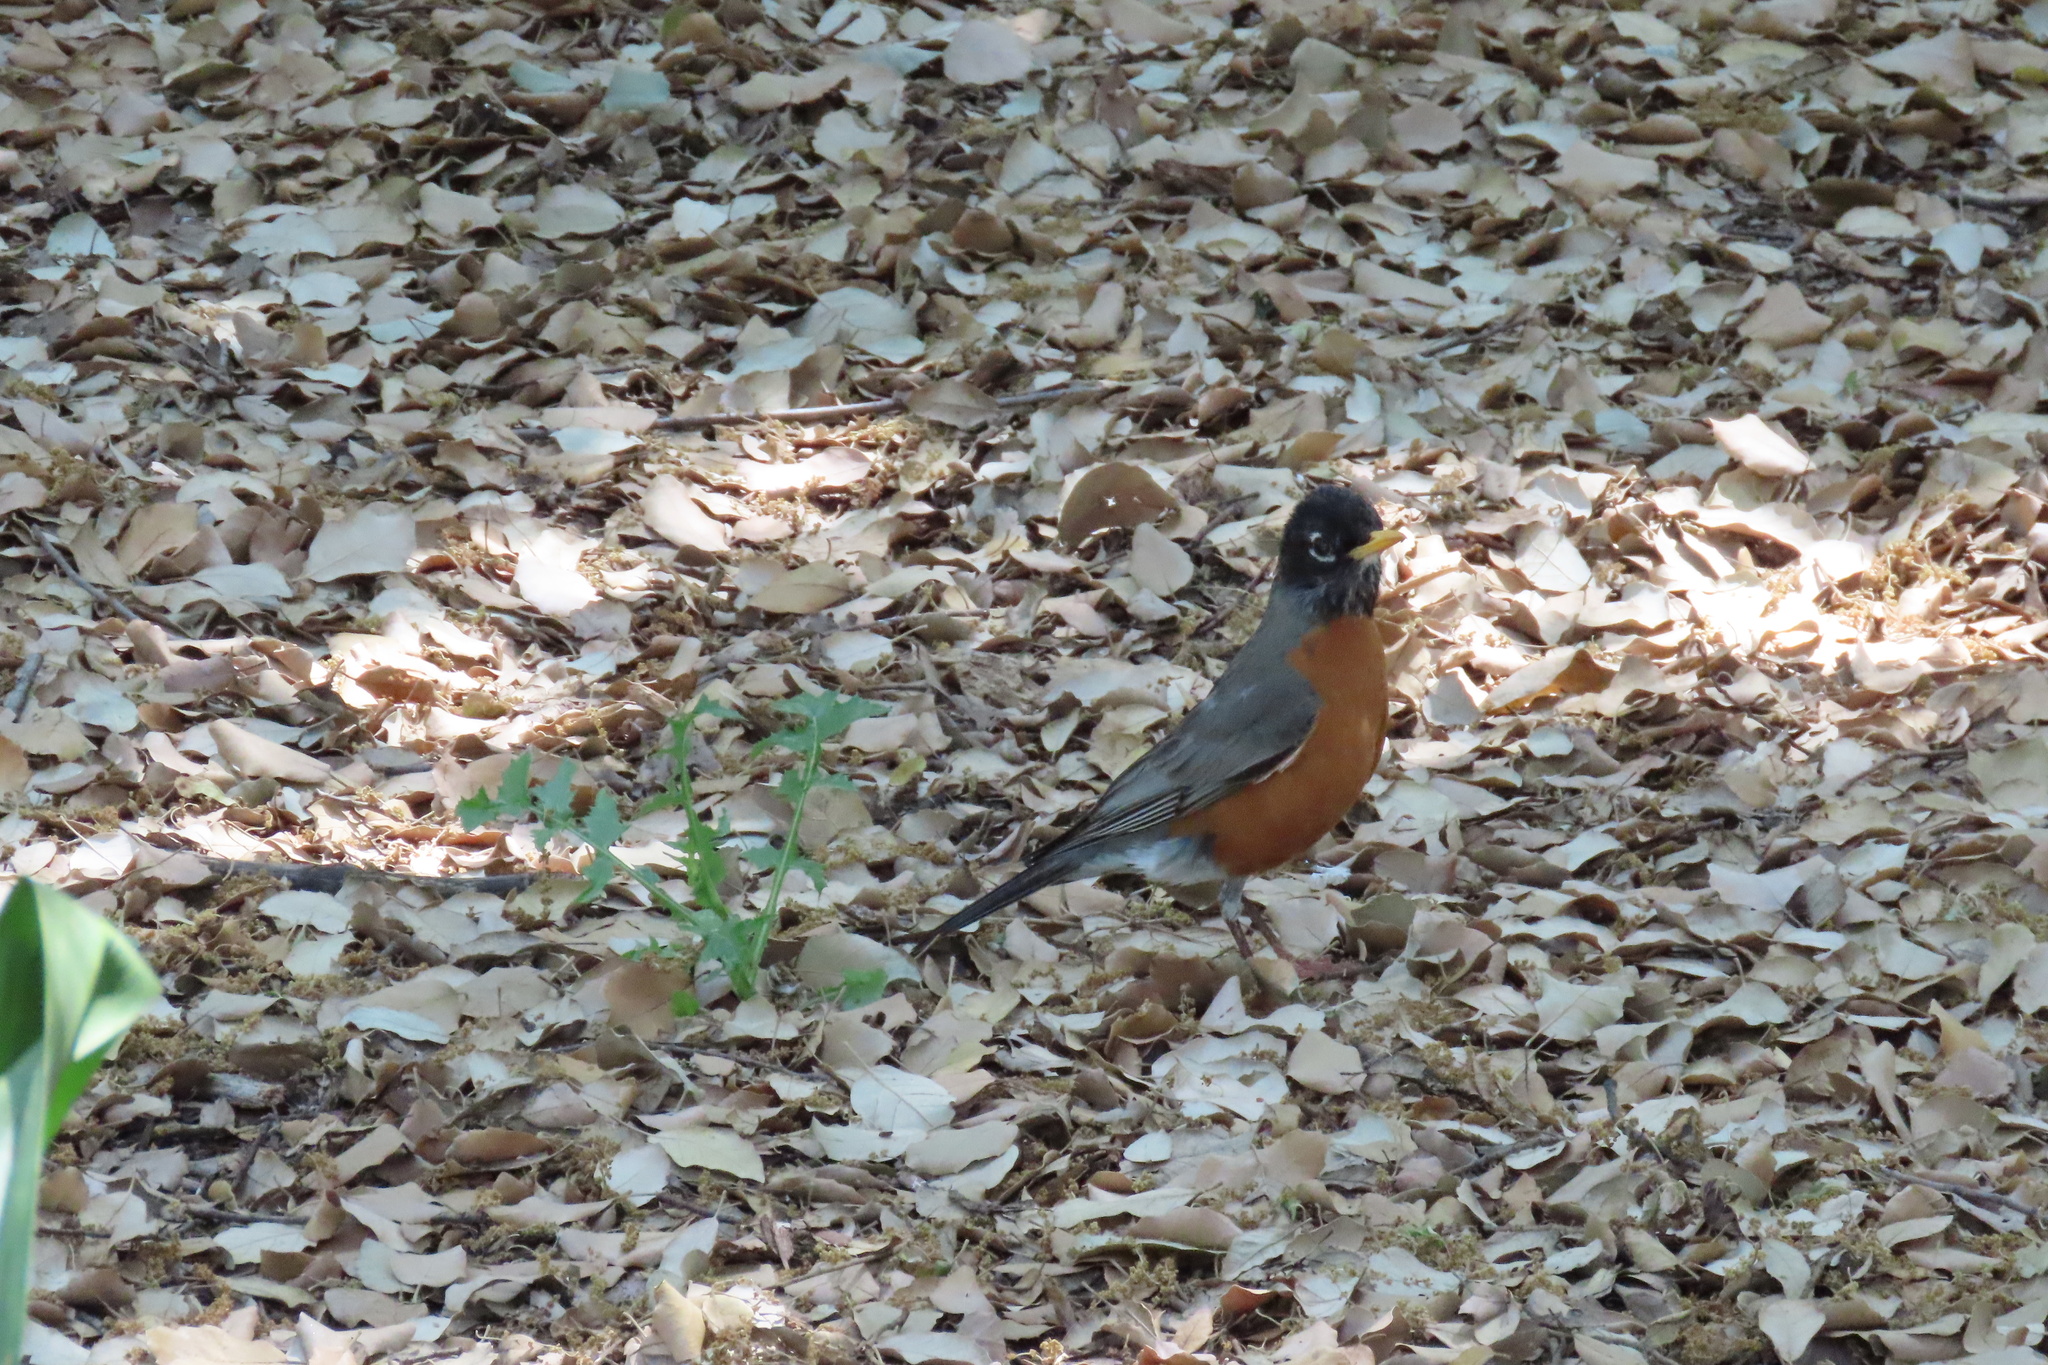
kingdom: Animalia
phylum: Chordata
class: Aves
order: Passeriformes
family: Turdidae
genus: Turdus
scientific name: Turdus migratorius
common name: American robin
